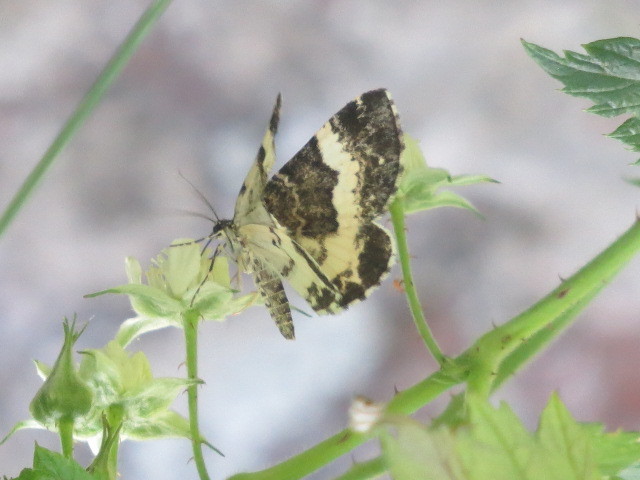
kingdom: Animalia
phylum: Arthropoda
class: Insecta
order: Lepidoptera
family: Geometridae
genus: Spargania
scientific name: Spargania luctuata
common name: White-banded carpet
